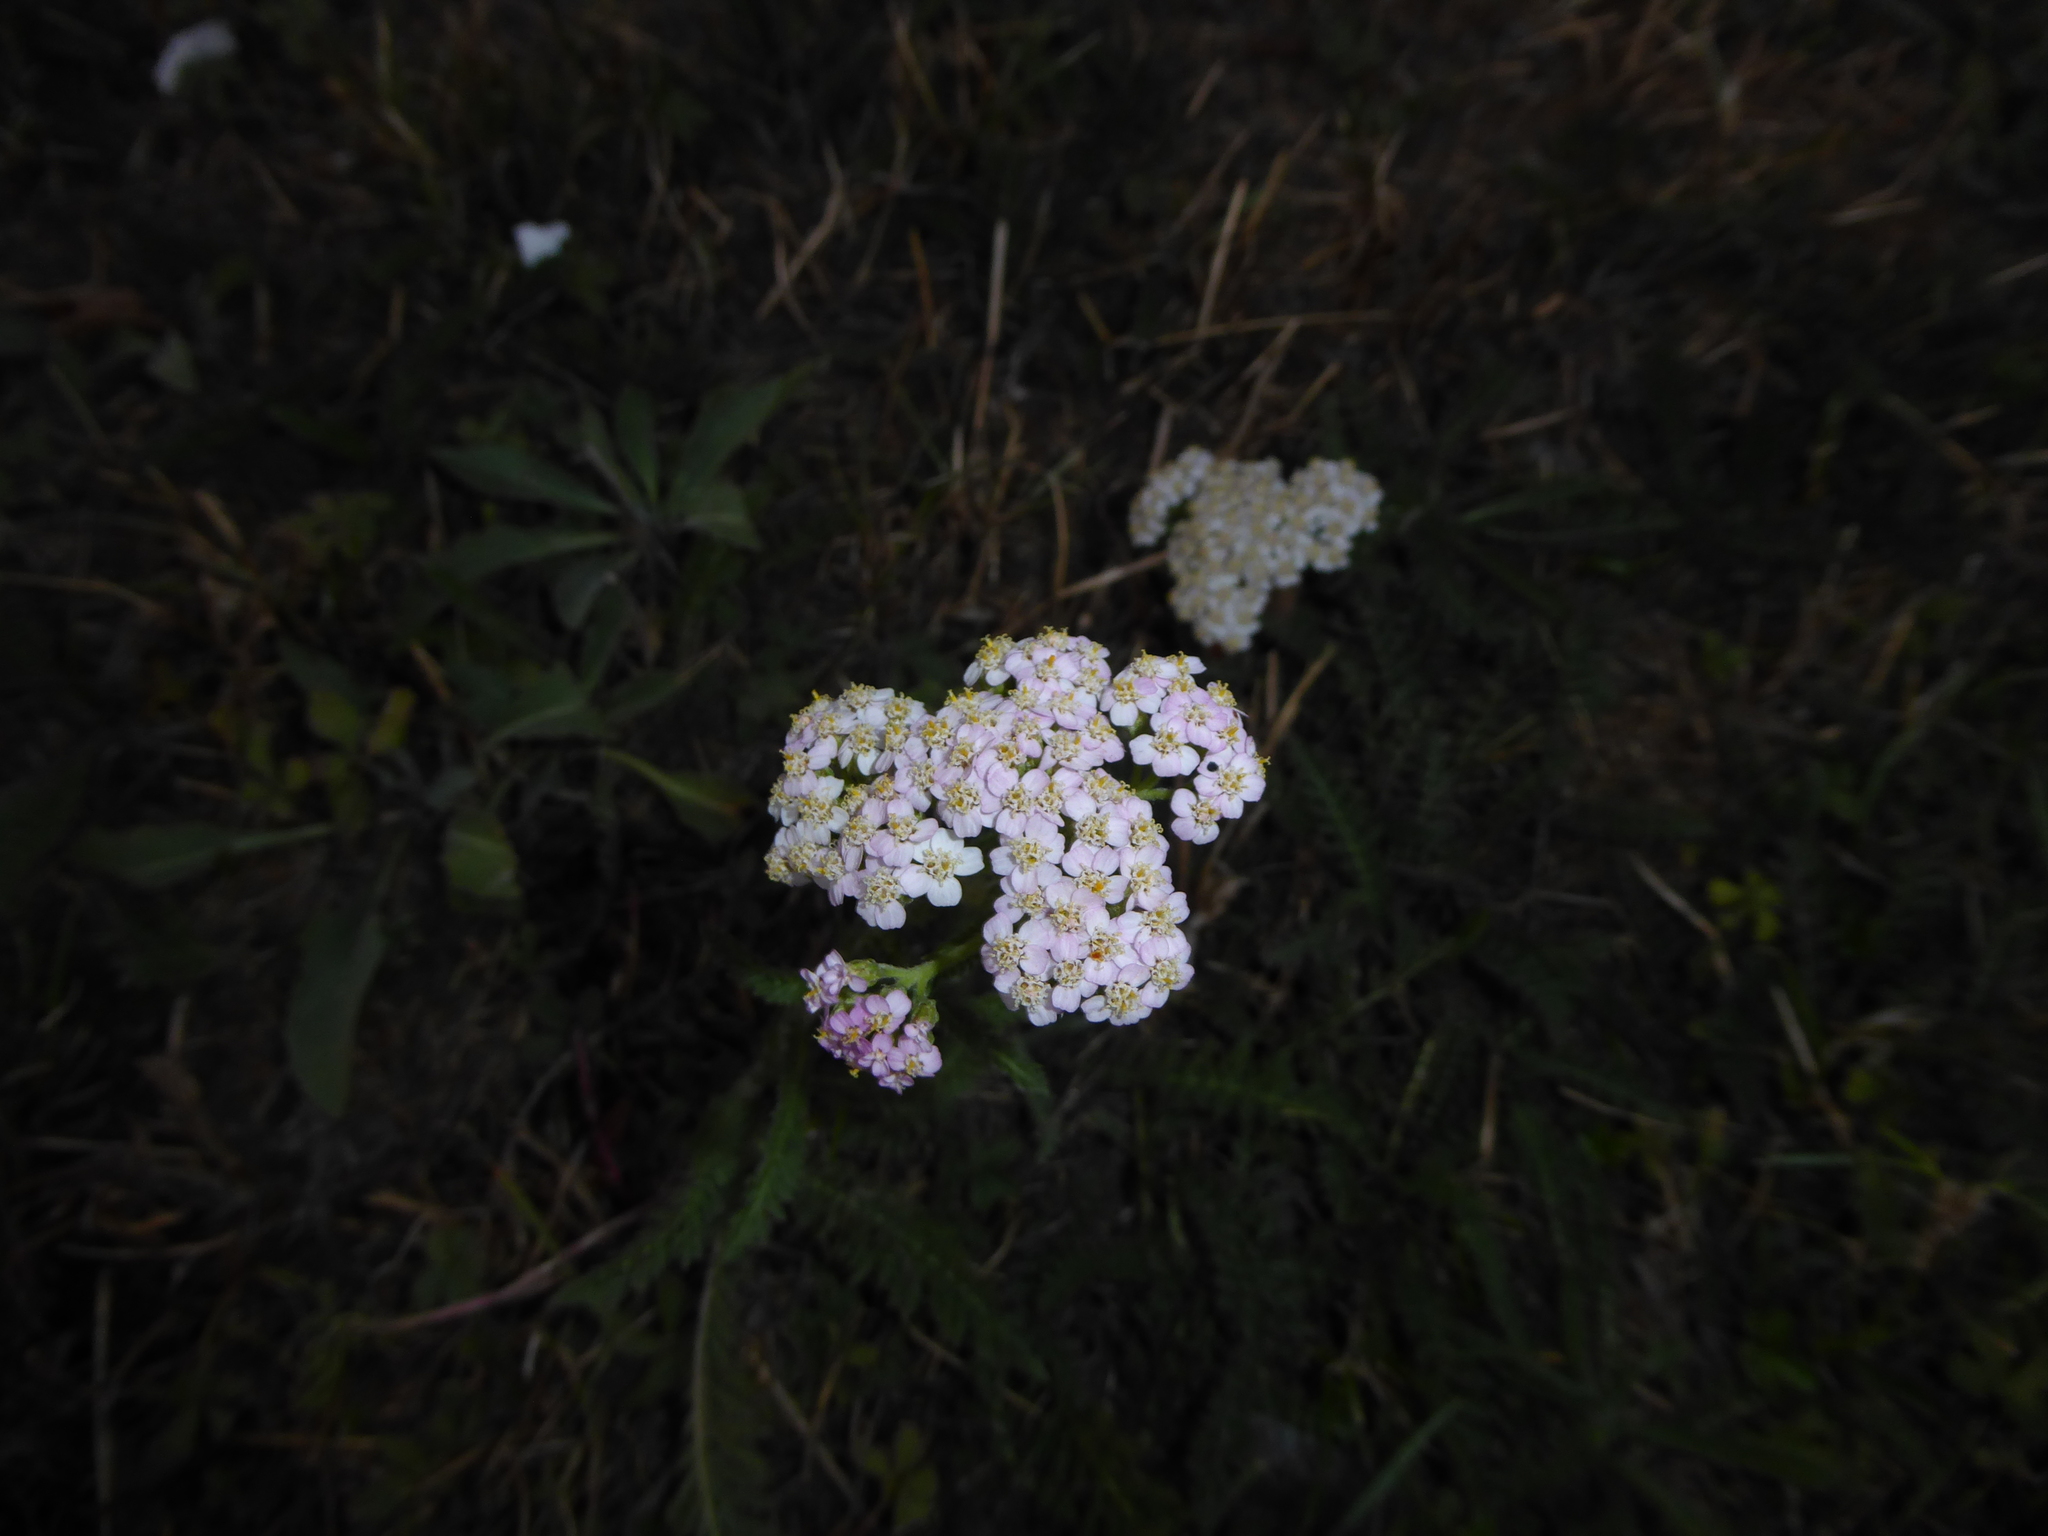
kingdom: Plantae
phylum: Tracheophyta
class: Magnoliopsida
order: Asterales
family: Asteraceae
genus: Achillea
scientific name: Achillea millefolium
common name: Yarrow
